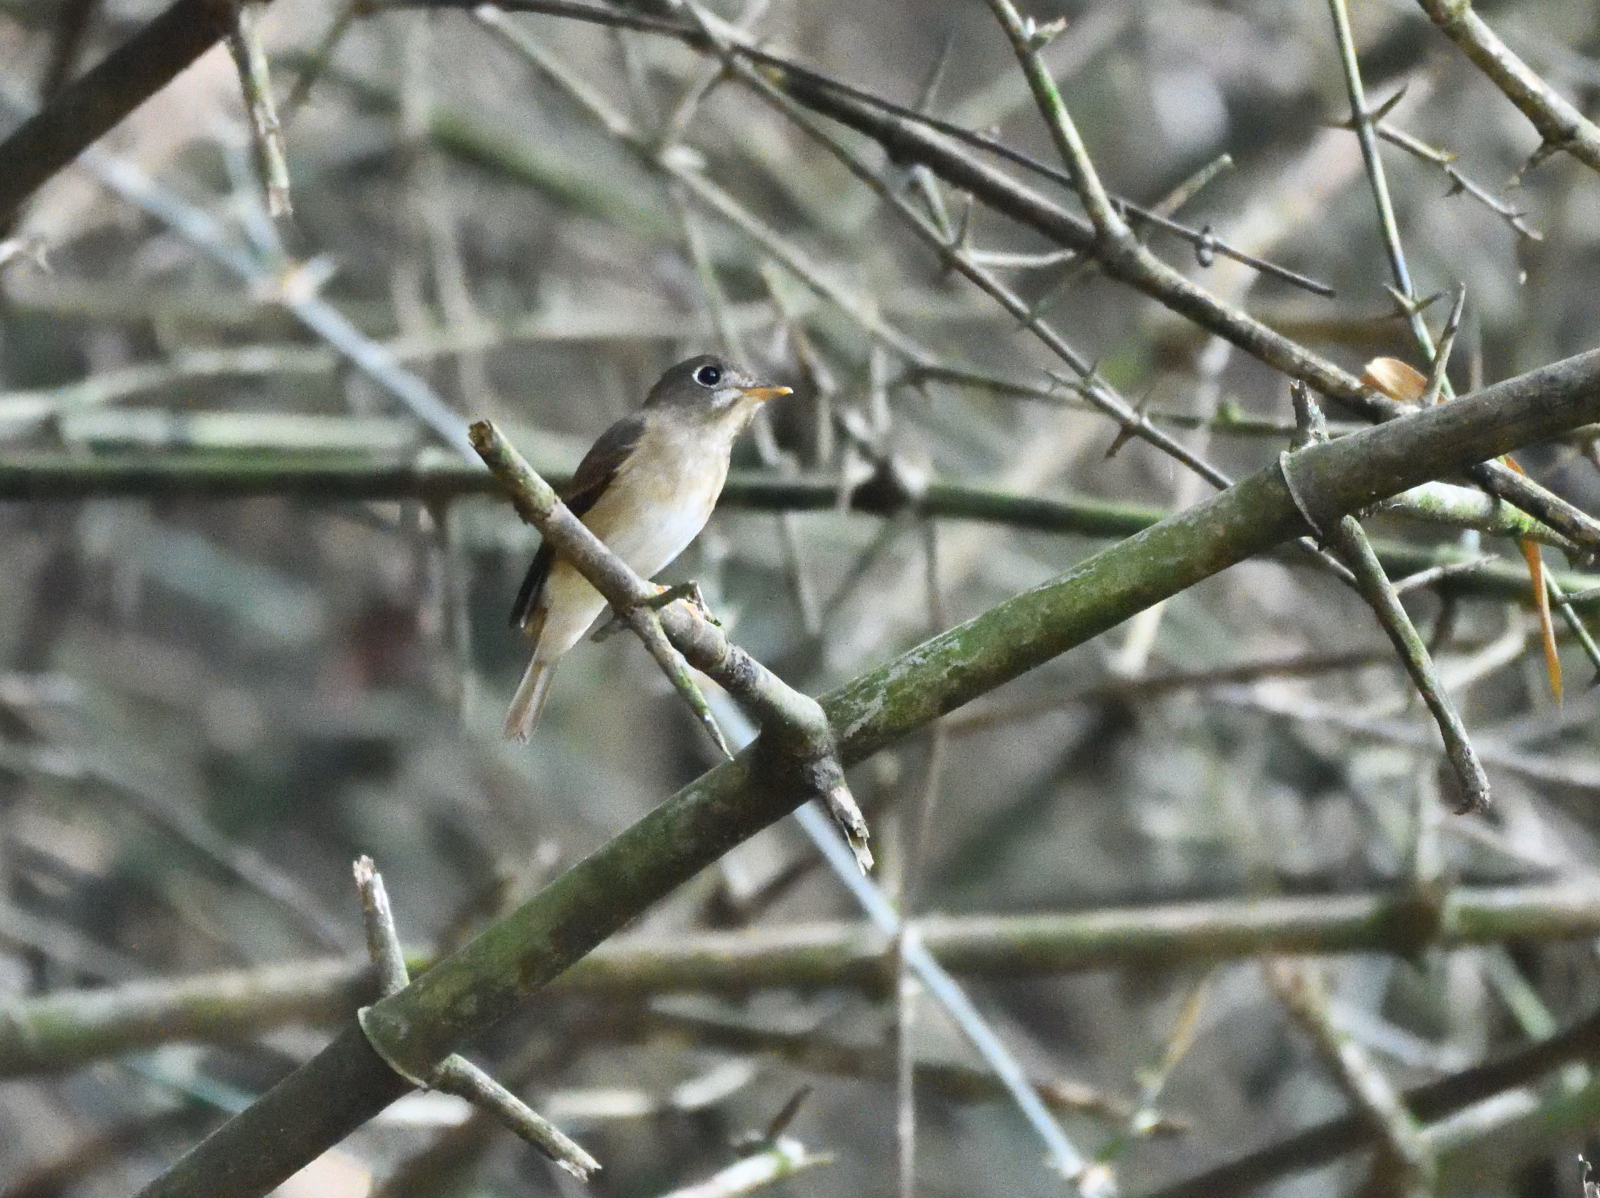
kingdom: Animalia
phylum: Chordata
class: Aves
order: Passeriformes
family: Muscicapidae
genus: Muscicapa
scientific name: Muscicapa muttui
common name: Brown-breasted flycatcher
